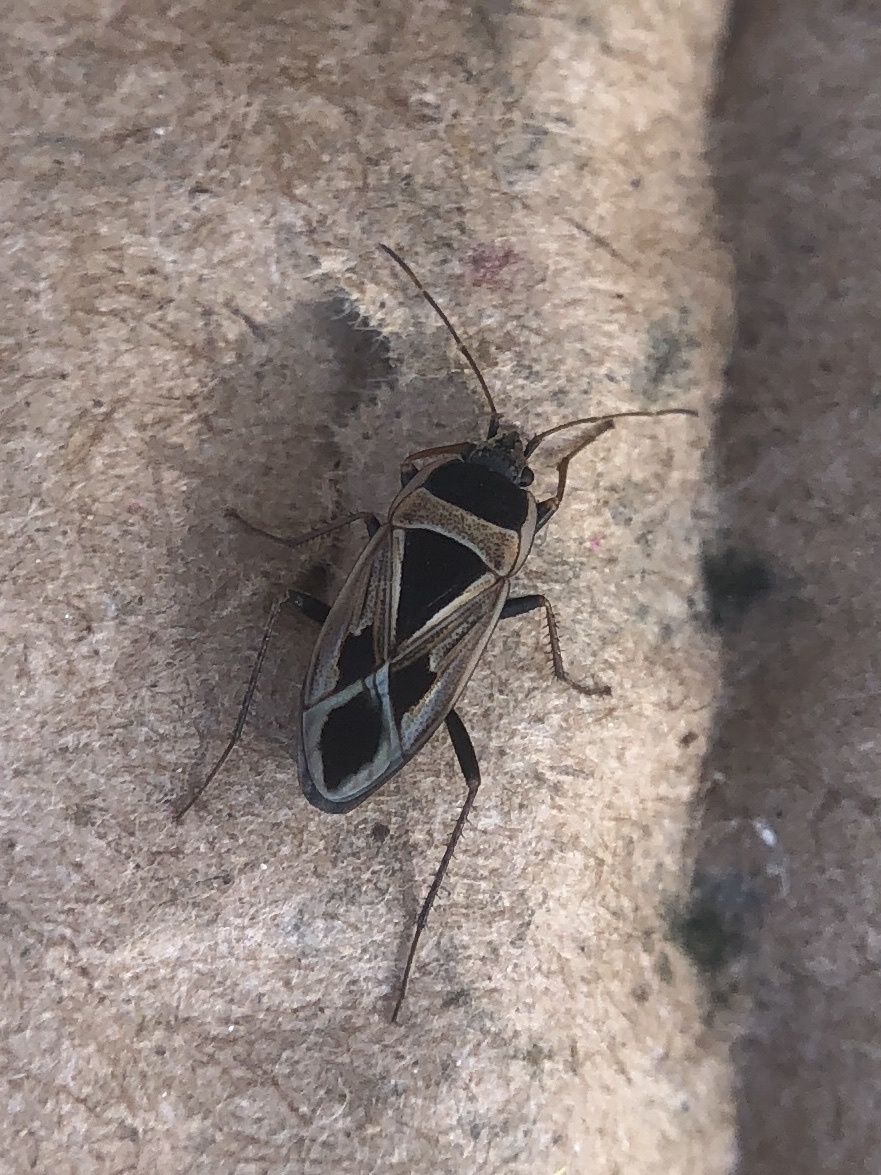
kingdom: Animalia
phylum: Arthropoda
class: Insecta
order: Hemiptera
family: Rhyparochromidae
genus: Xanthochilus
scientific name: Xanthochilus saturnius
